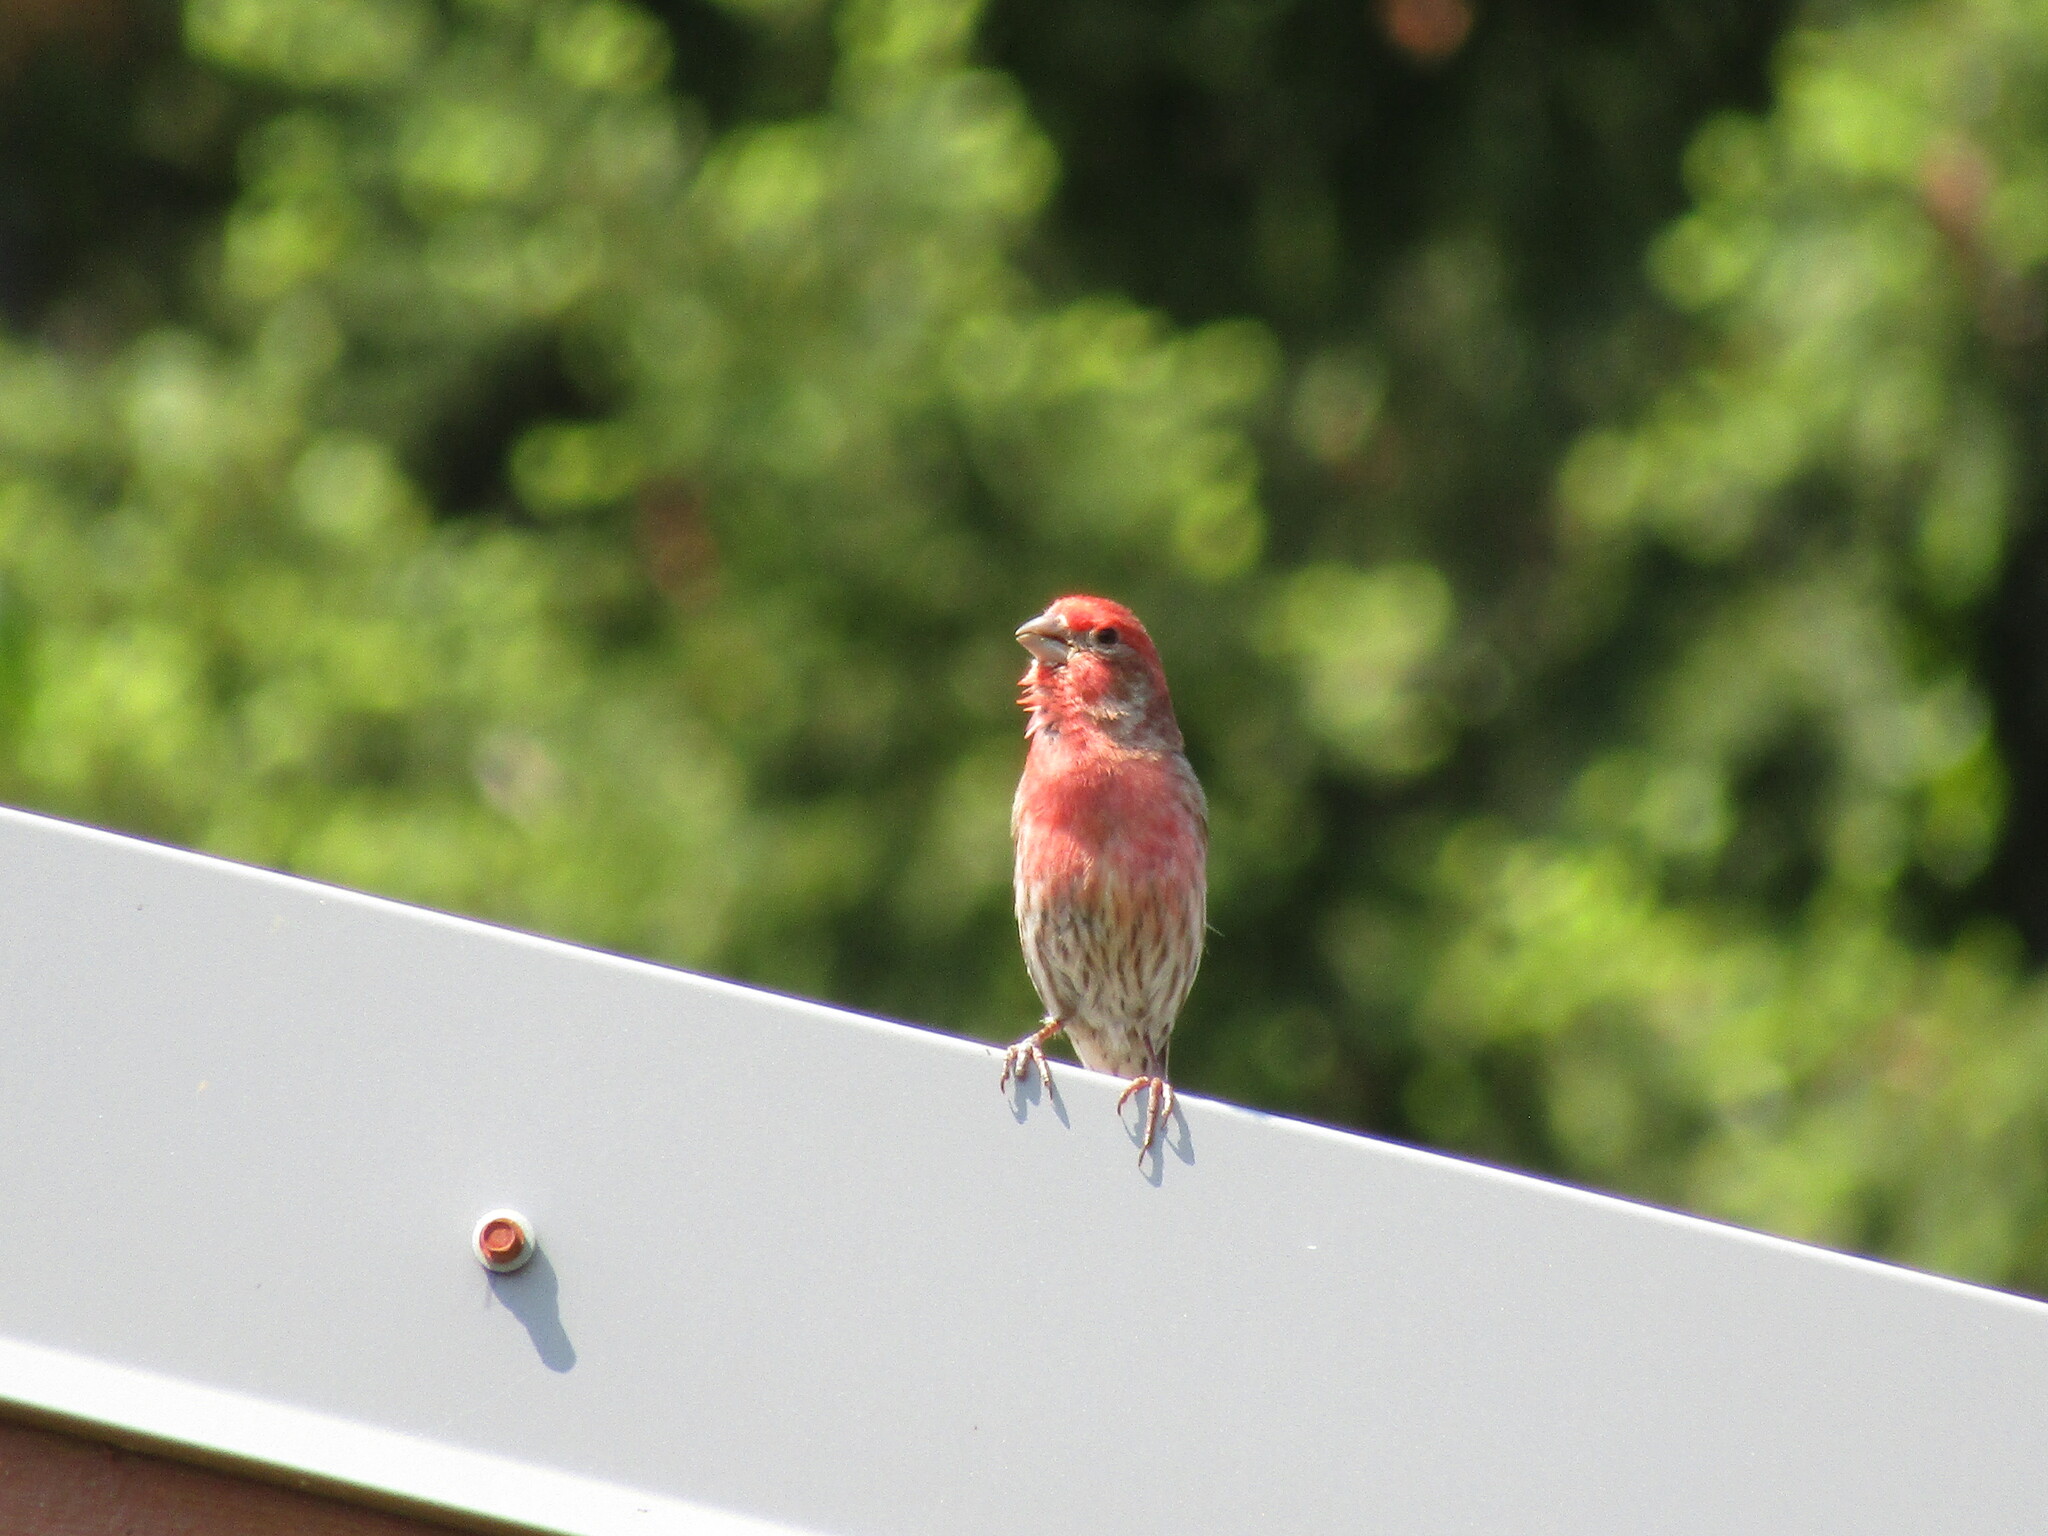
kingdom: Animalia
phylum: Chordata
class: Aves
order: Passeriformes
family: Fringillidae
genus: Haemorhous
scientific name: Haemorhous mexicanus
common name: House finch
